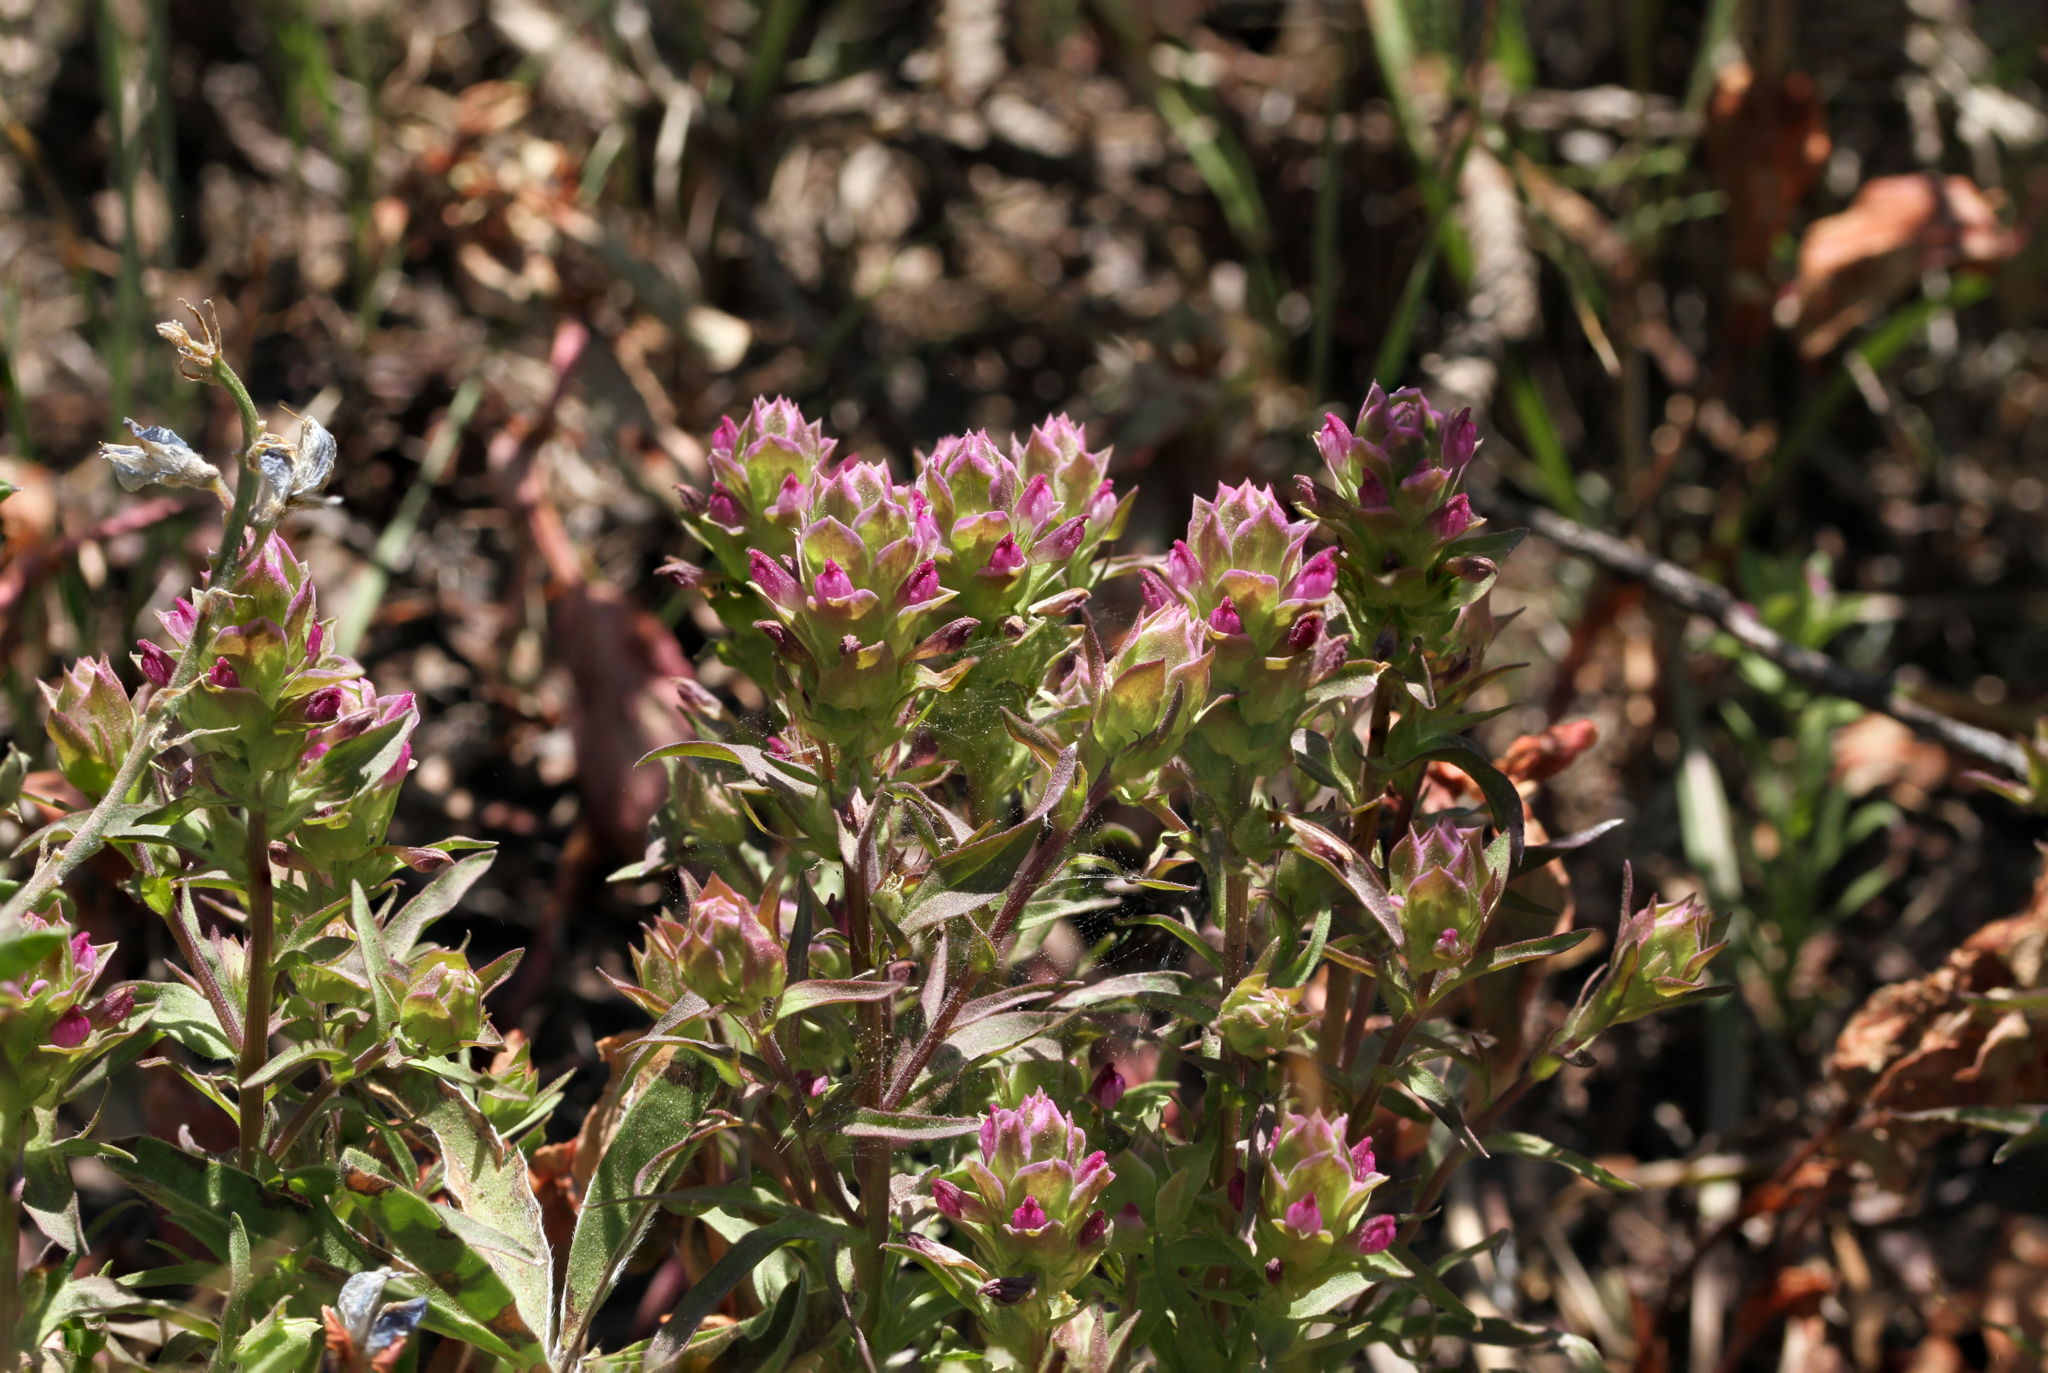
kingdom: Plantae
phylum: Tracheophyta
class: Magnoliopsida
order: Lamiales
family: Orobanchaceae
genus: Orthocarpus
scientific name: Orthocarpus cuspidatus
